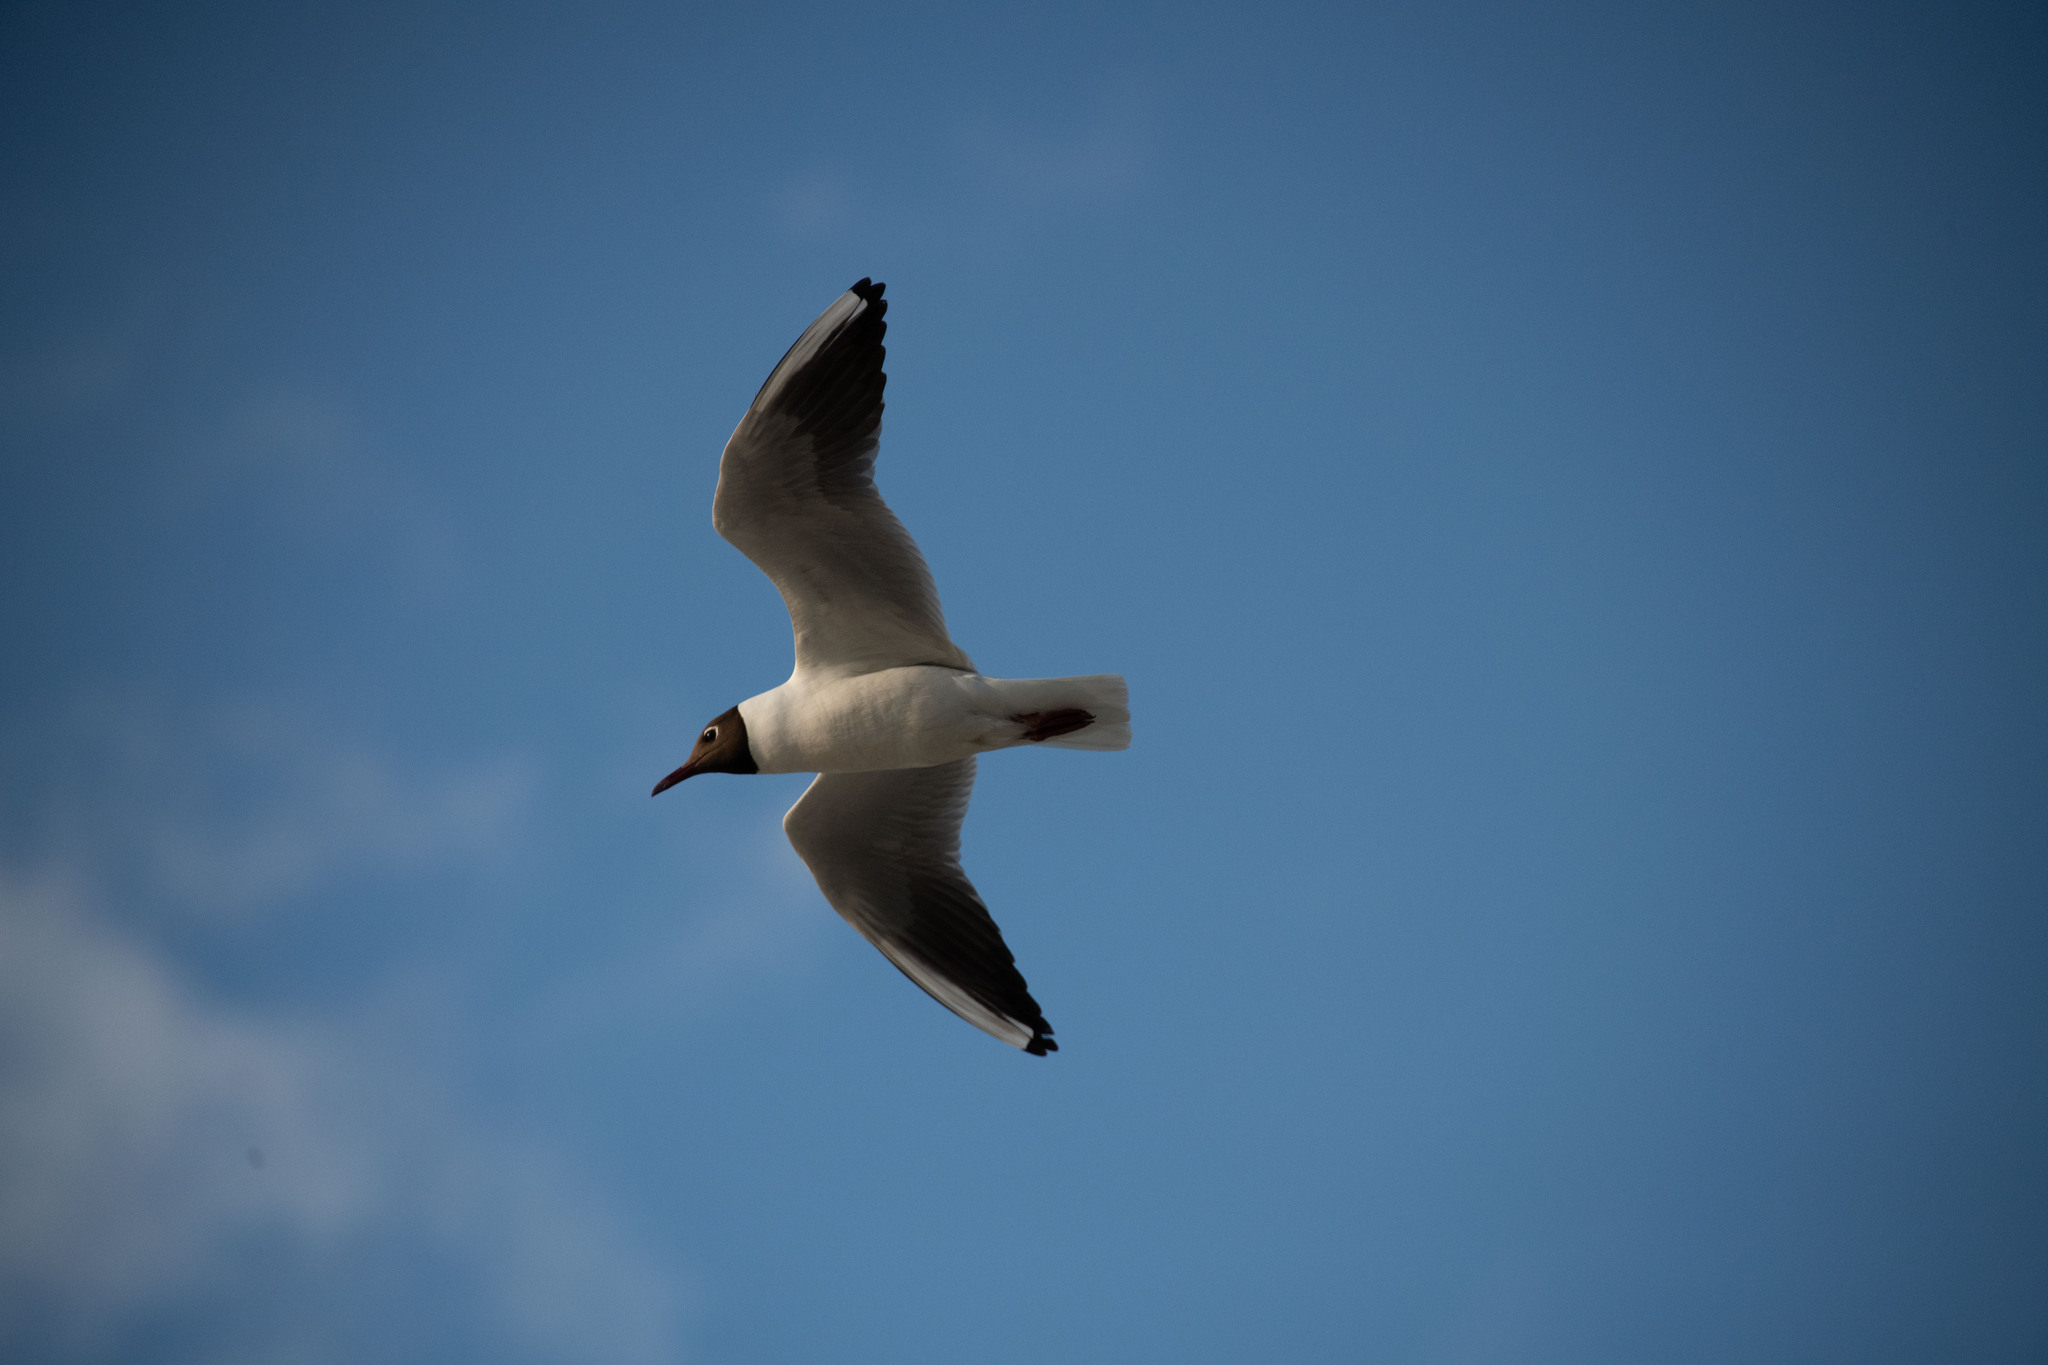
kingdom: Animalia
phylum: Chordata
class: Aves
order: Charadriiformes
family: Laridae
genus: Chroicocephalus
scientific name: Chroicocephalus ridibundus
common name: Black-headed gull
